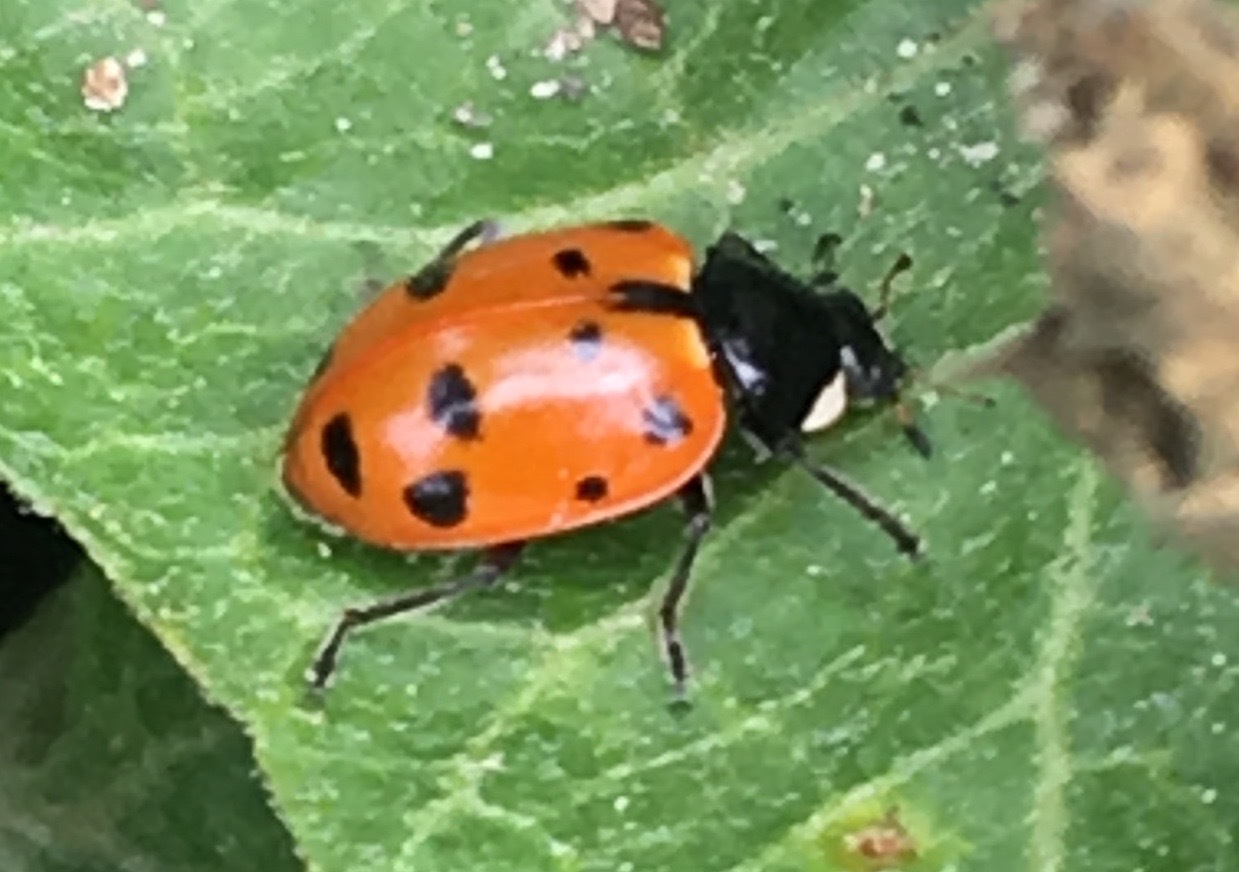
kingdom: Animalia
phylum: Arthropoda
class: Insecta
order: Coleoptera
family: Coccinellidae
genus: Hippodamia
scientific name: Hippodamia quinquesignata
